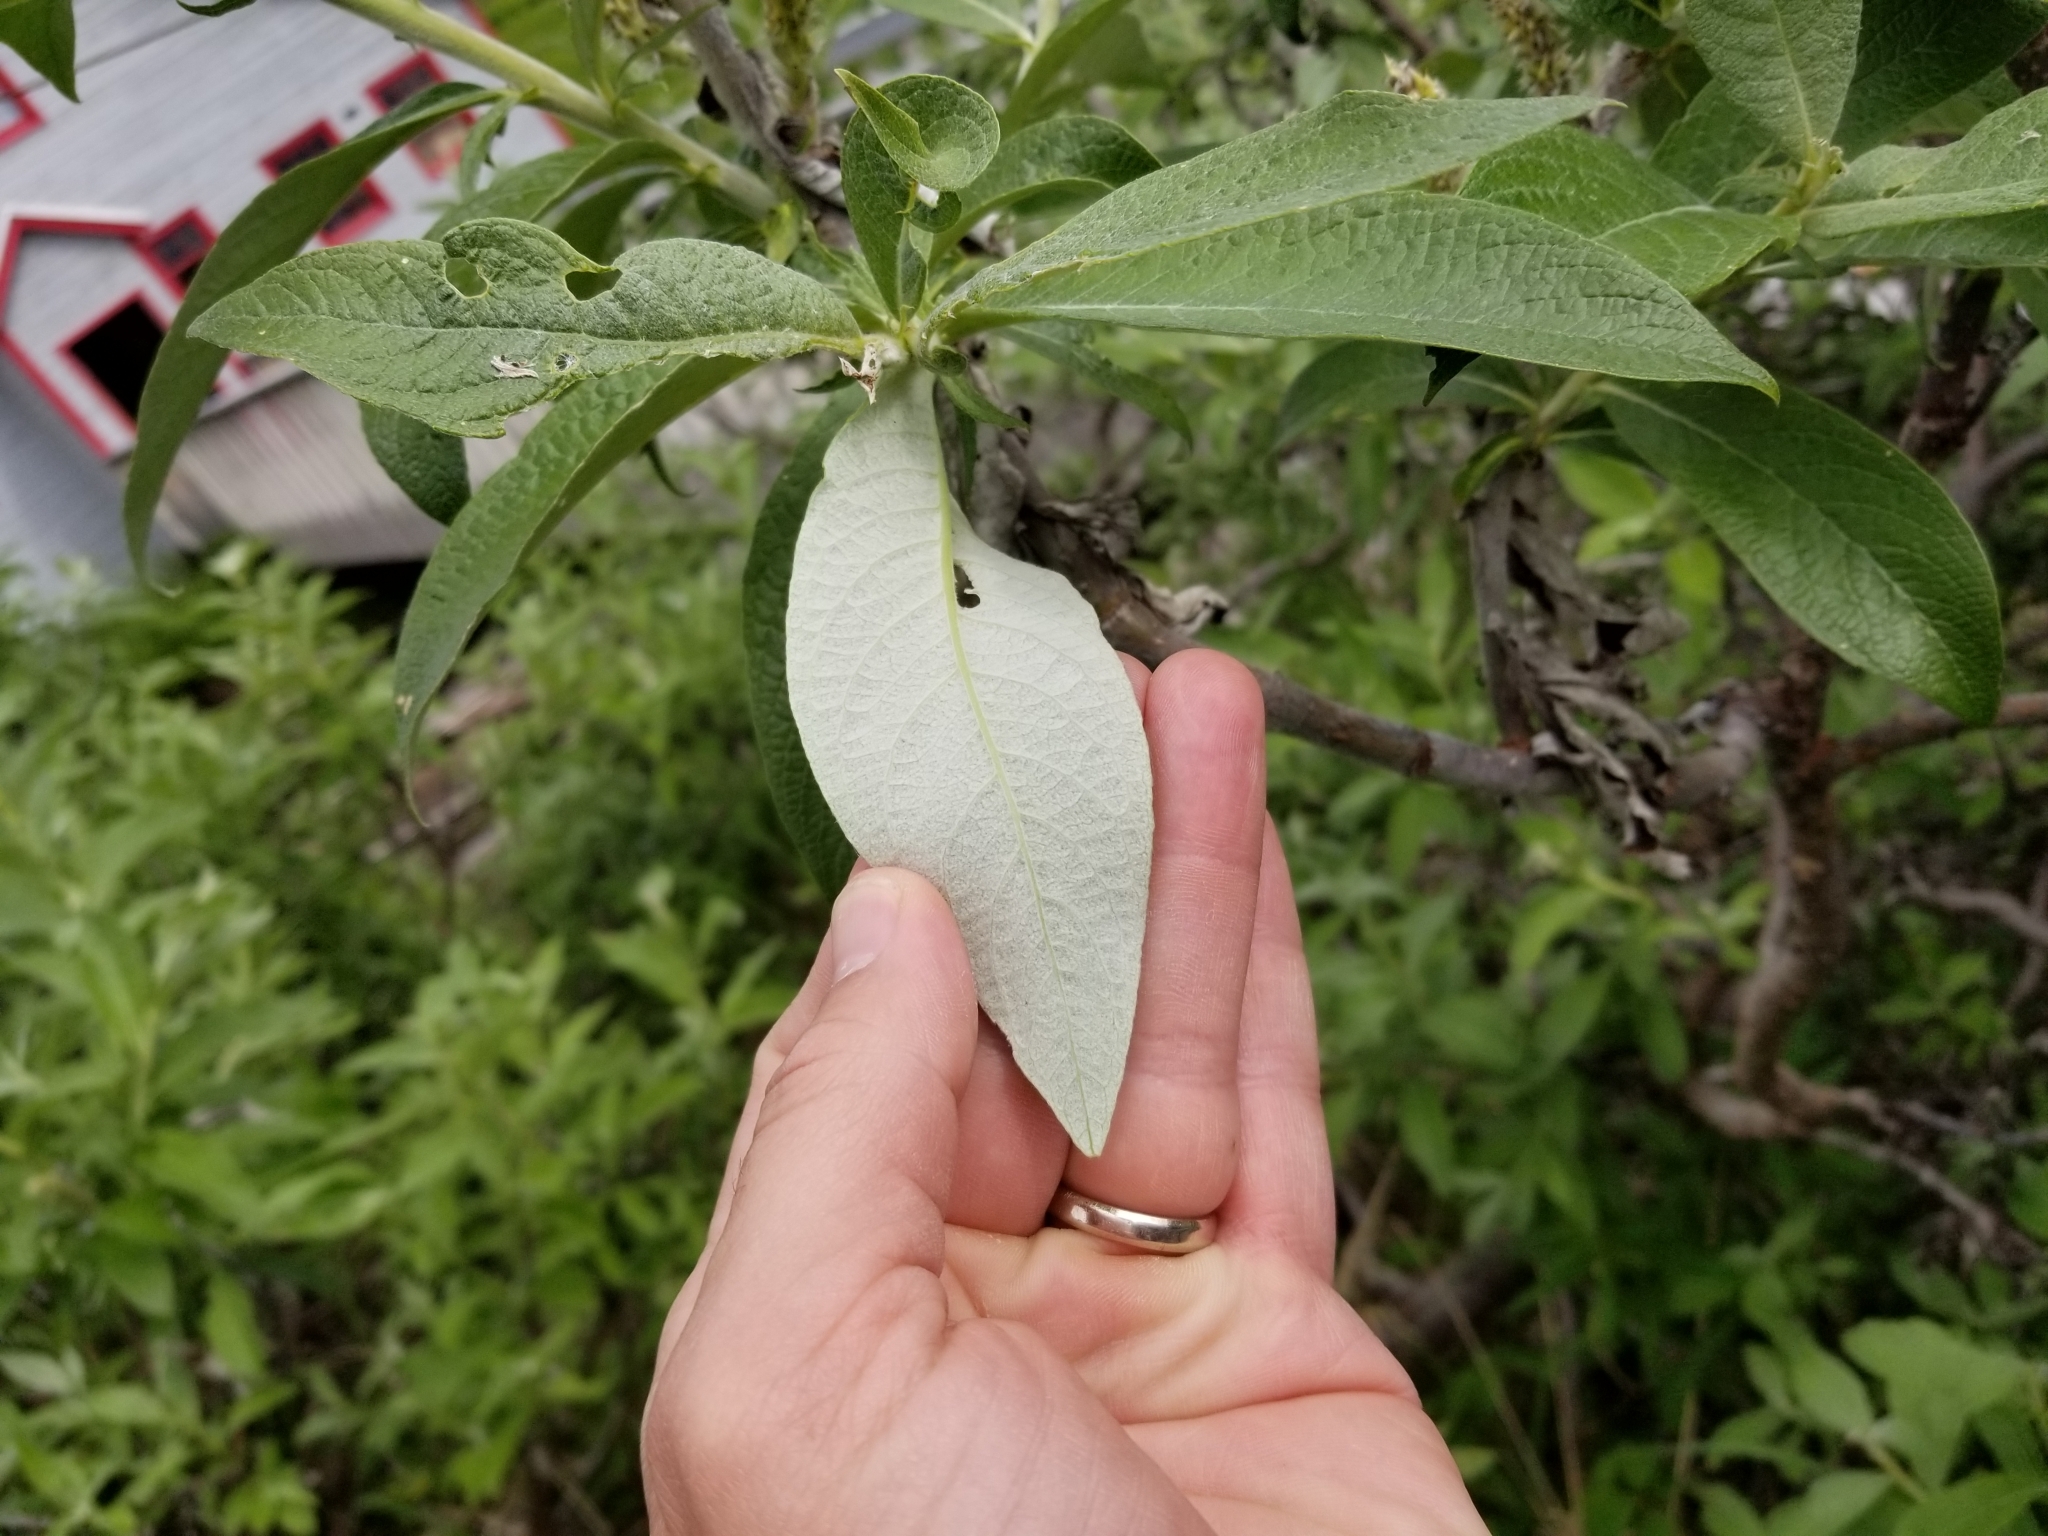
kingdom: Plantae
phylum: Tracheophyta
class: Magnoliopsida
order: Malpighiales
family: Salicaceae
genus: Salix
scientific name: Salix alaxensis
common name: Feltleaf willow
